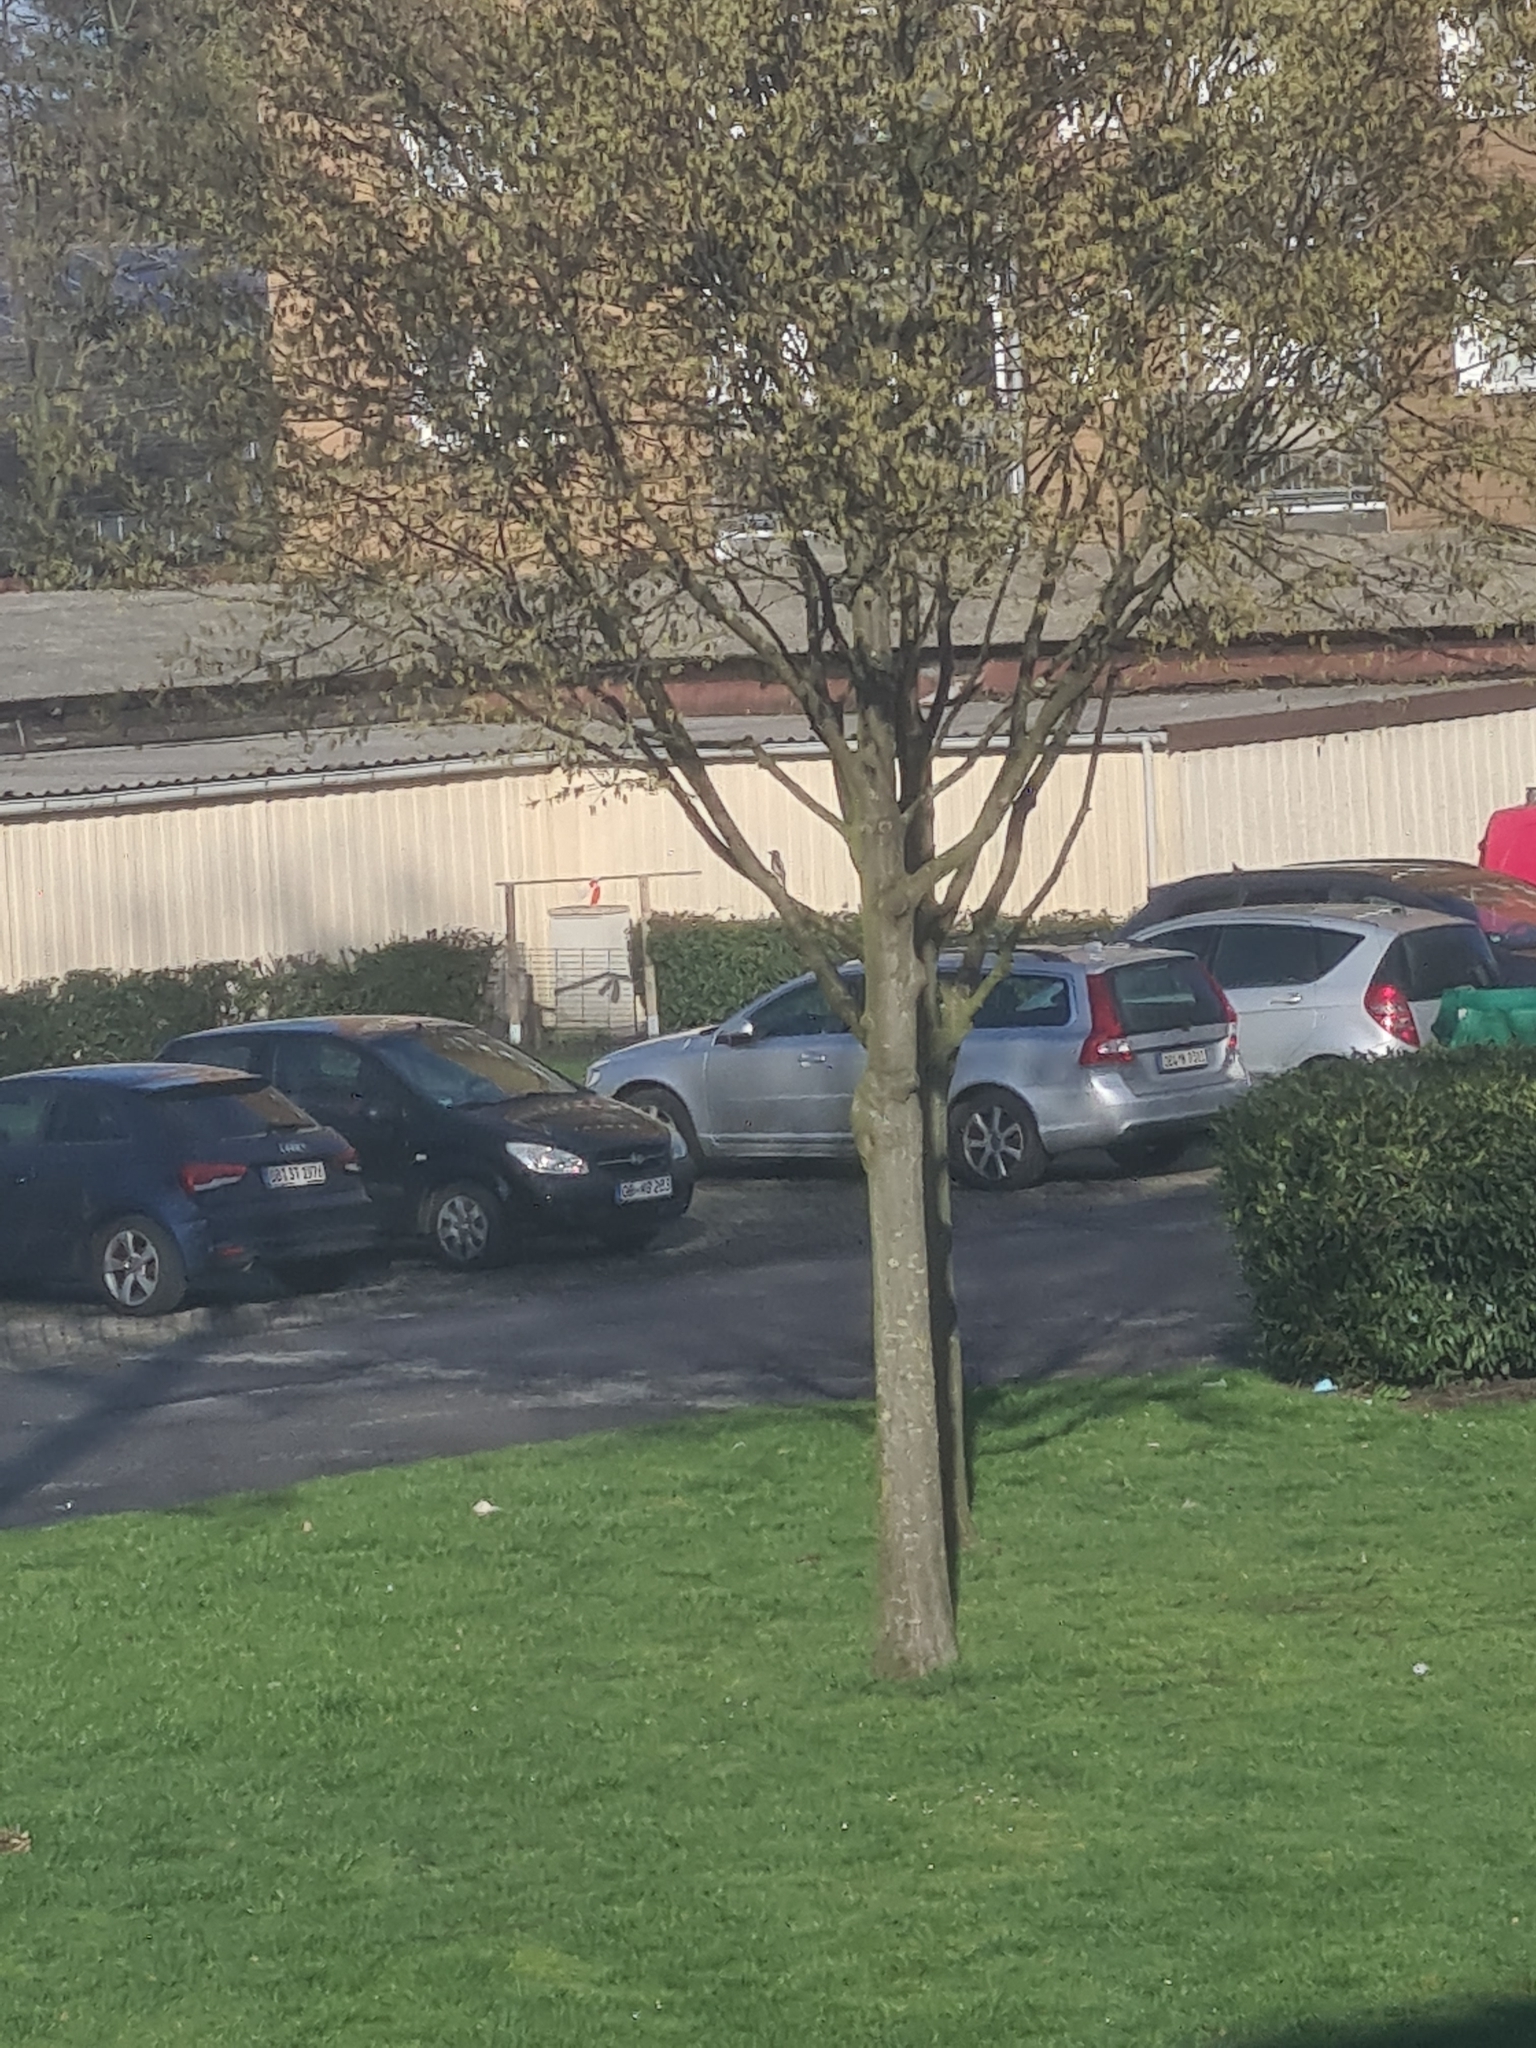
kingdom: Animalia
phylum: Chordata
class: Aves
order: Piciformes
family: Picidae
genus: Dendrocopos
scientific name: Dendrocopos major
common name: Great spotted woodpecker
